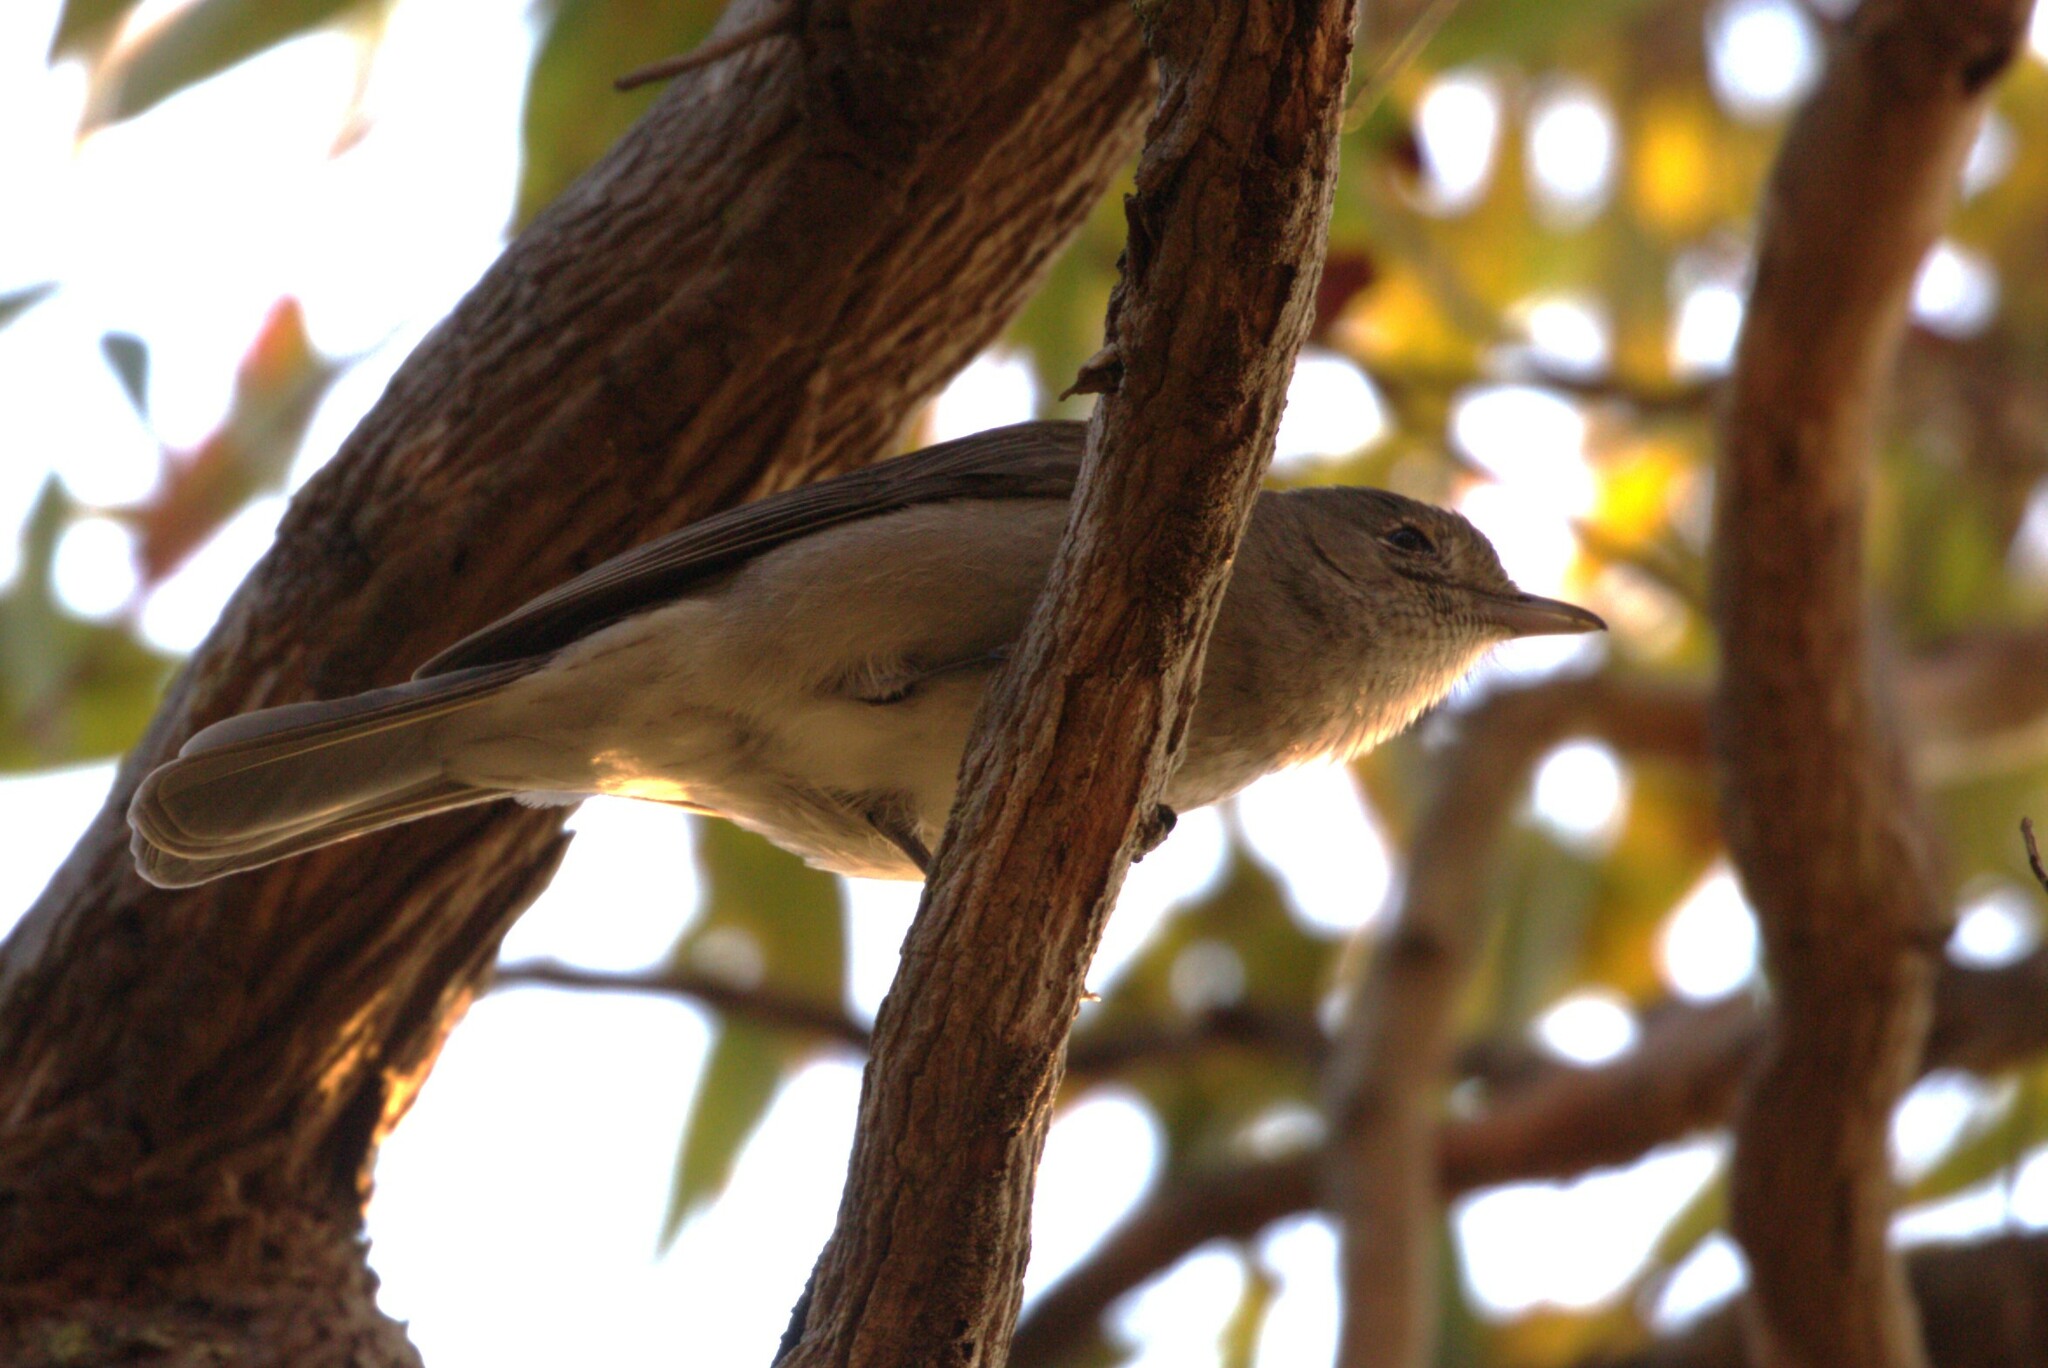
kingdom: Animalia
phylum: Chordata
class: Aves
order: Passeriformes
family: Pachycephalidae
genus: Colluricincla
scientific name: Colluricincla harmonica
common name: Grey shrikethrush
